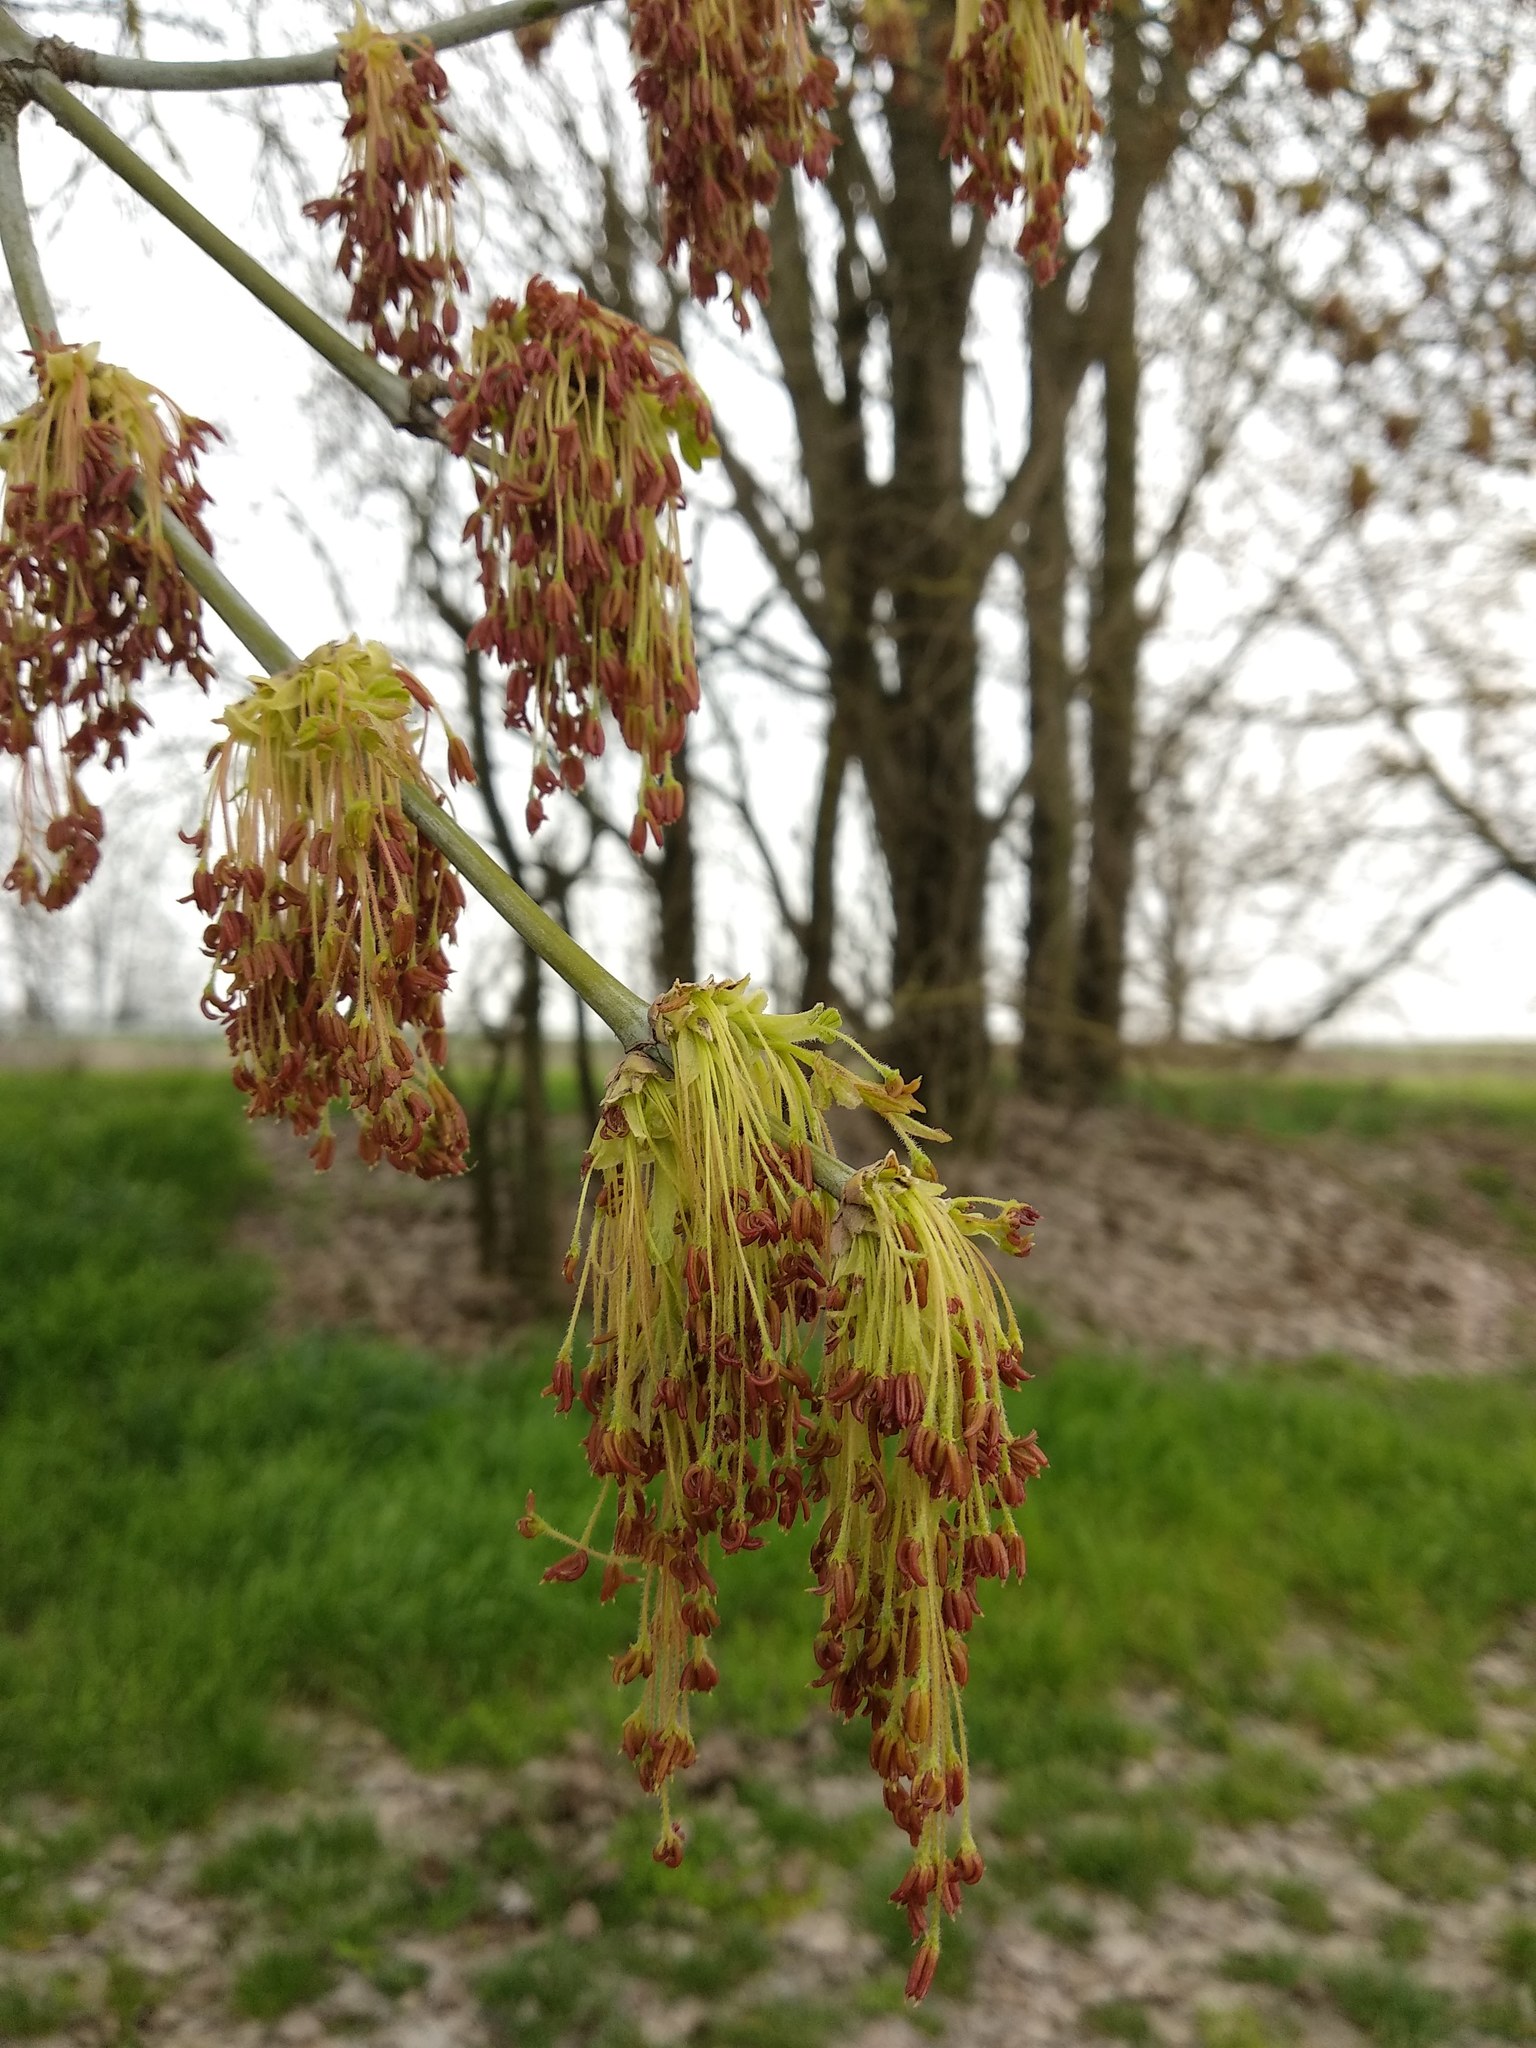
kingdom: Plantae
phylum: Tracheophyta
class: Magnoliopsida
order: Sapindales
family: Sapindaceae
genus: Acer
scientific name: Acer negundo
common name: Ashleaf maple
